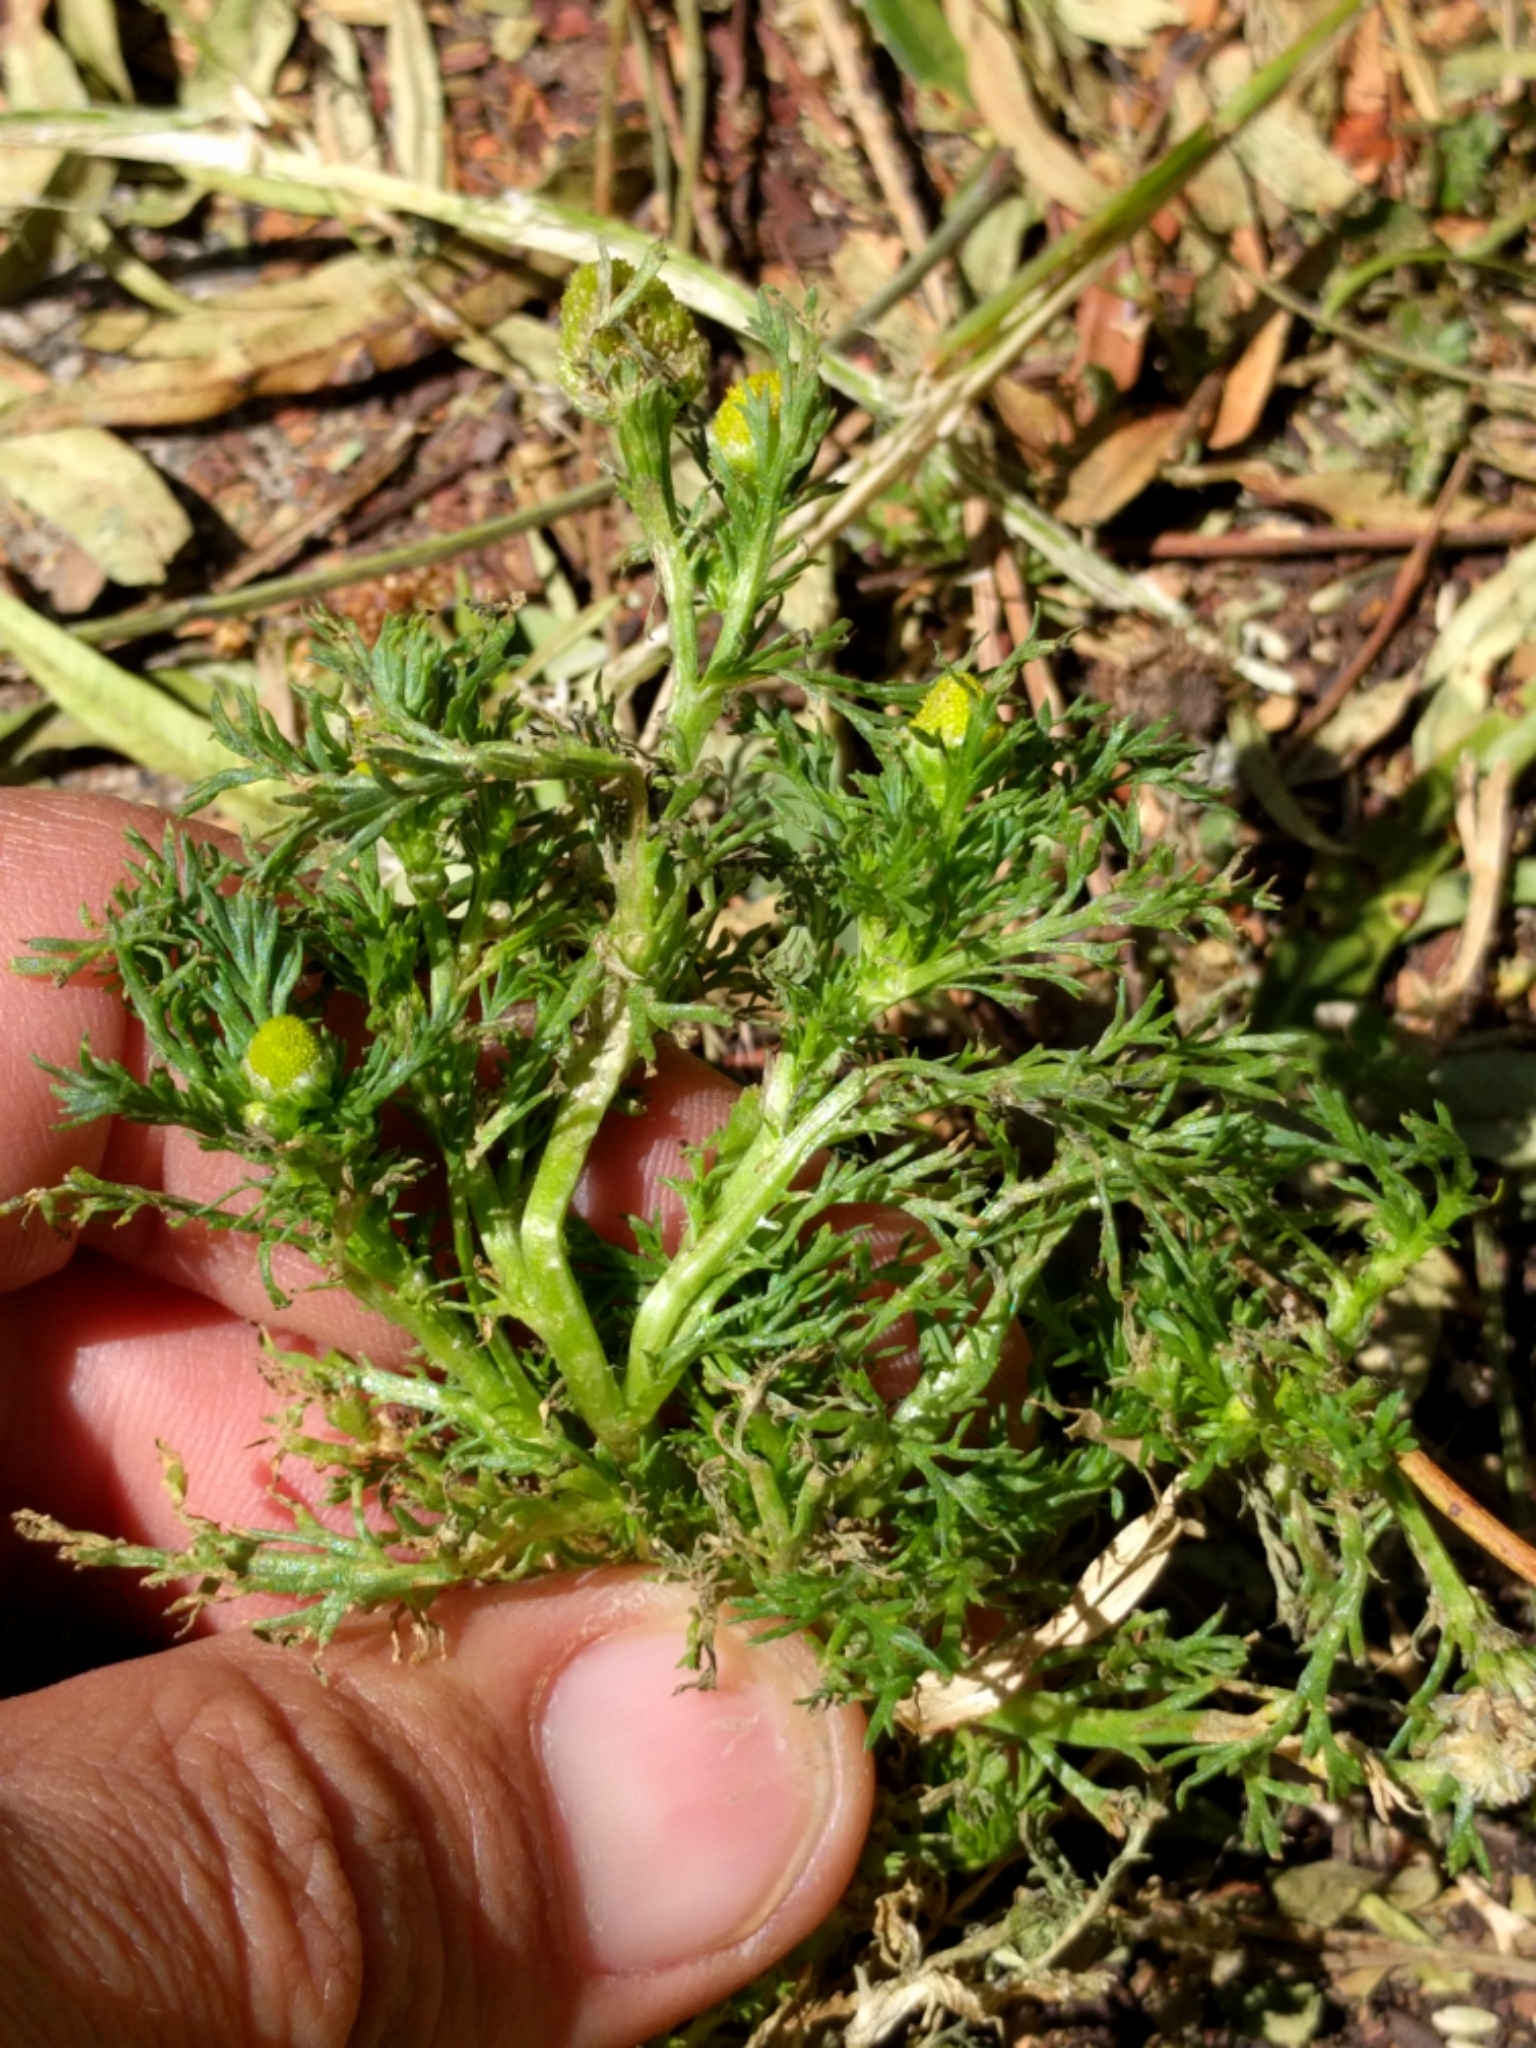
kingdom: Plantae
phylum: Tracheophyta
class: Magnoliopsida
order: Asterales
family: Asteraceae
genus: Matricaria
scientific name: Matricaria discoidea
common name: Disc mayweed
